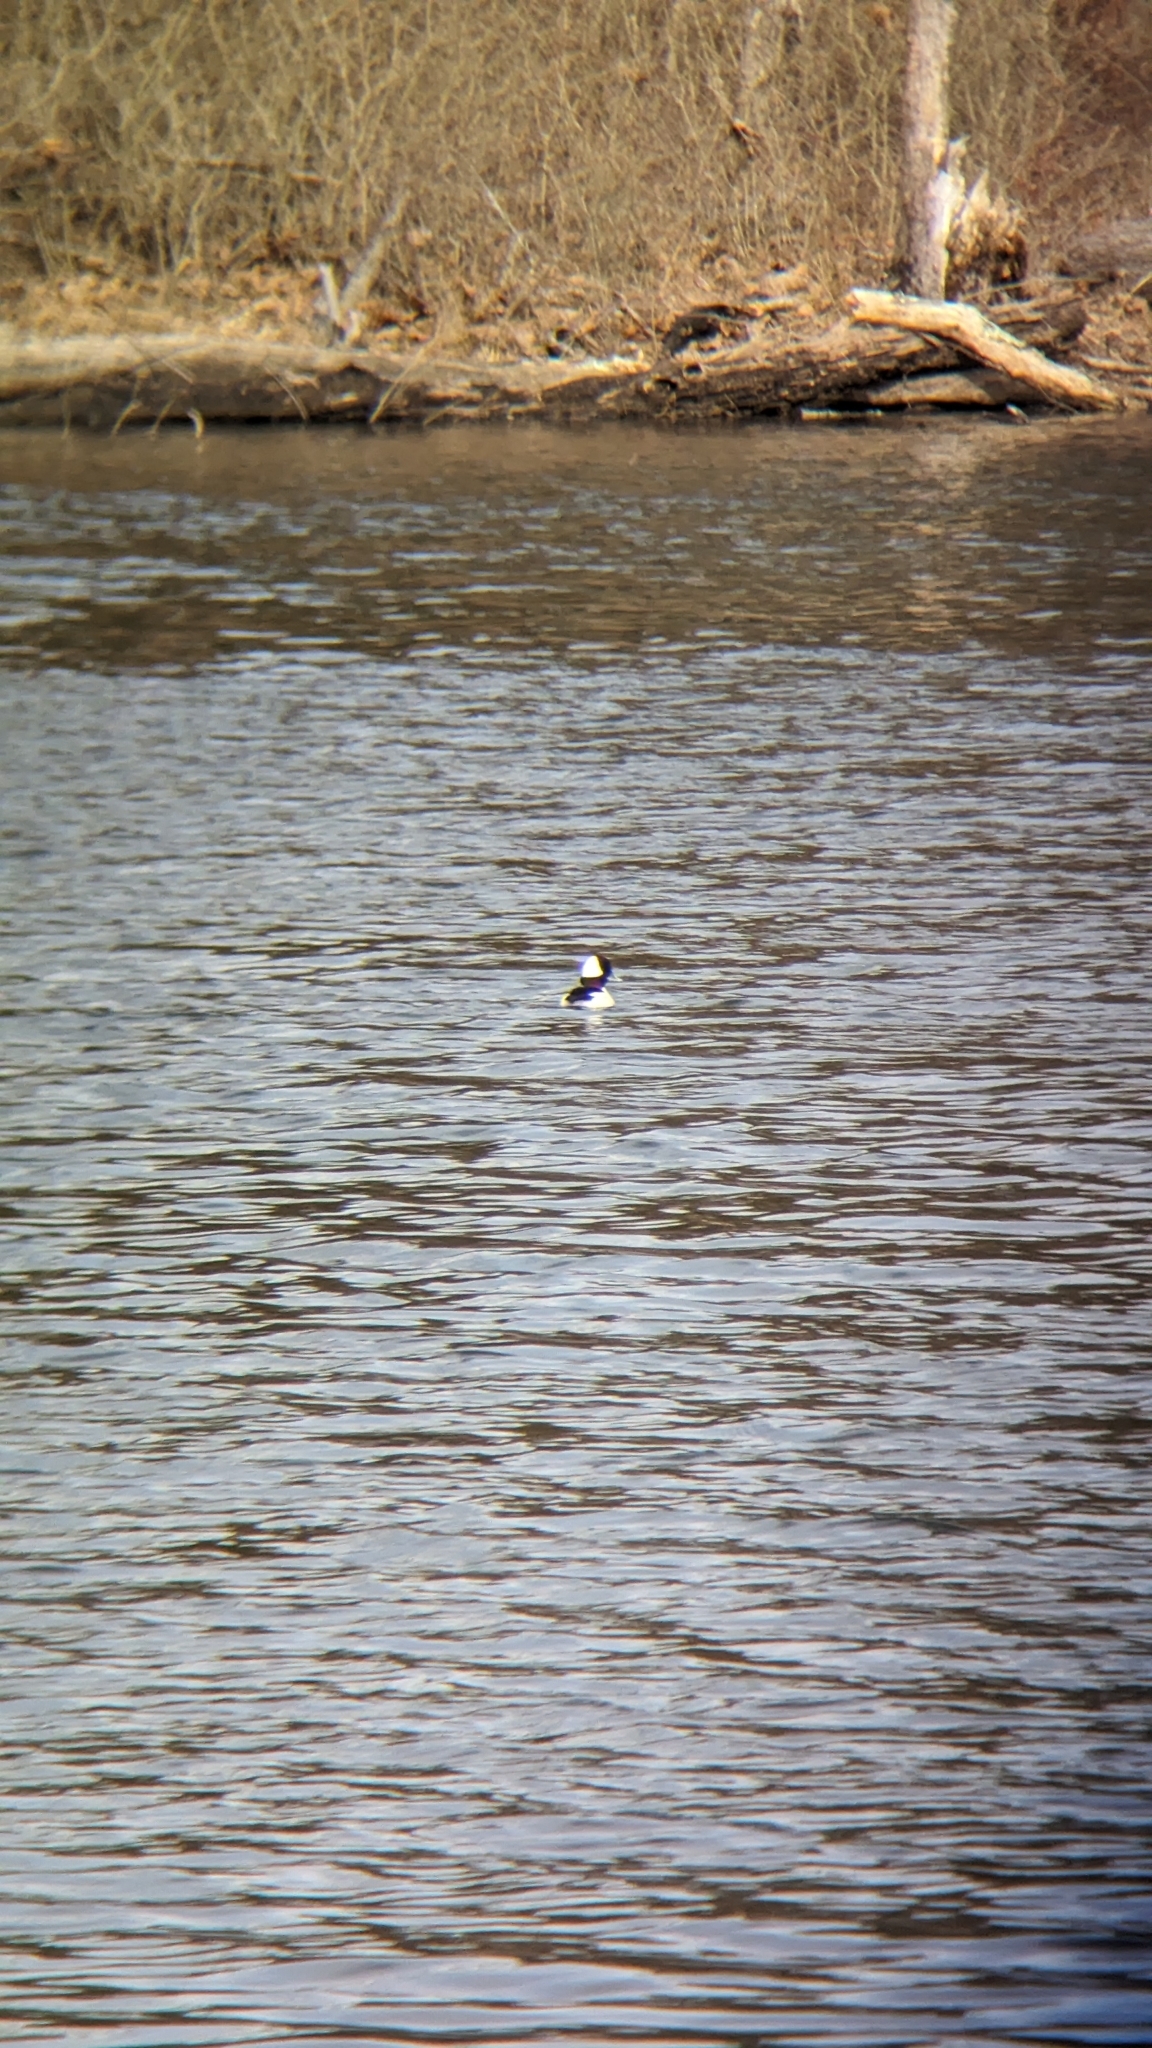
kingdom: Animalia
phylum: Chordata
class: Aves
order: Anseriformes
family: Anatidae
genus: Bucephala
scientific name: Bucephala albeola
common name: Bufflehead
